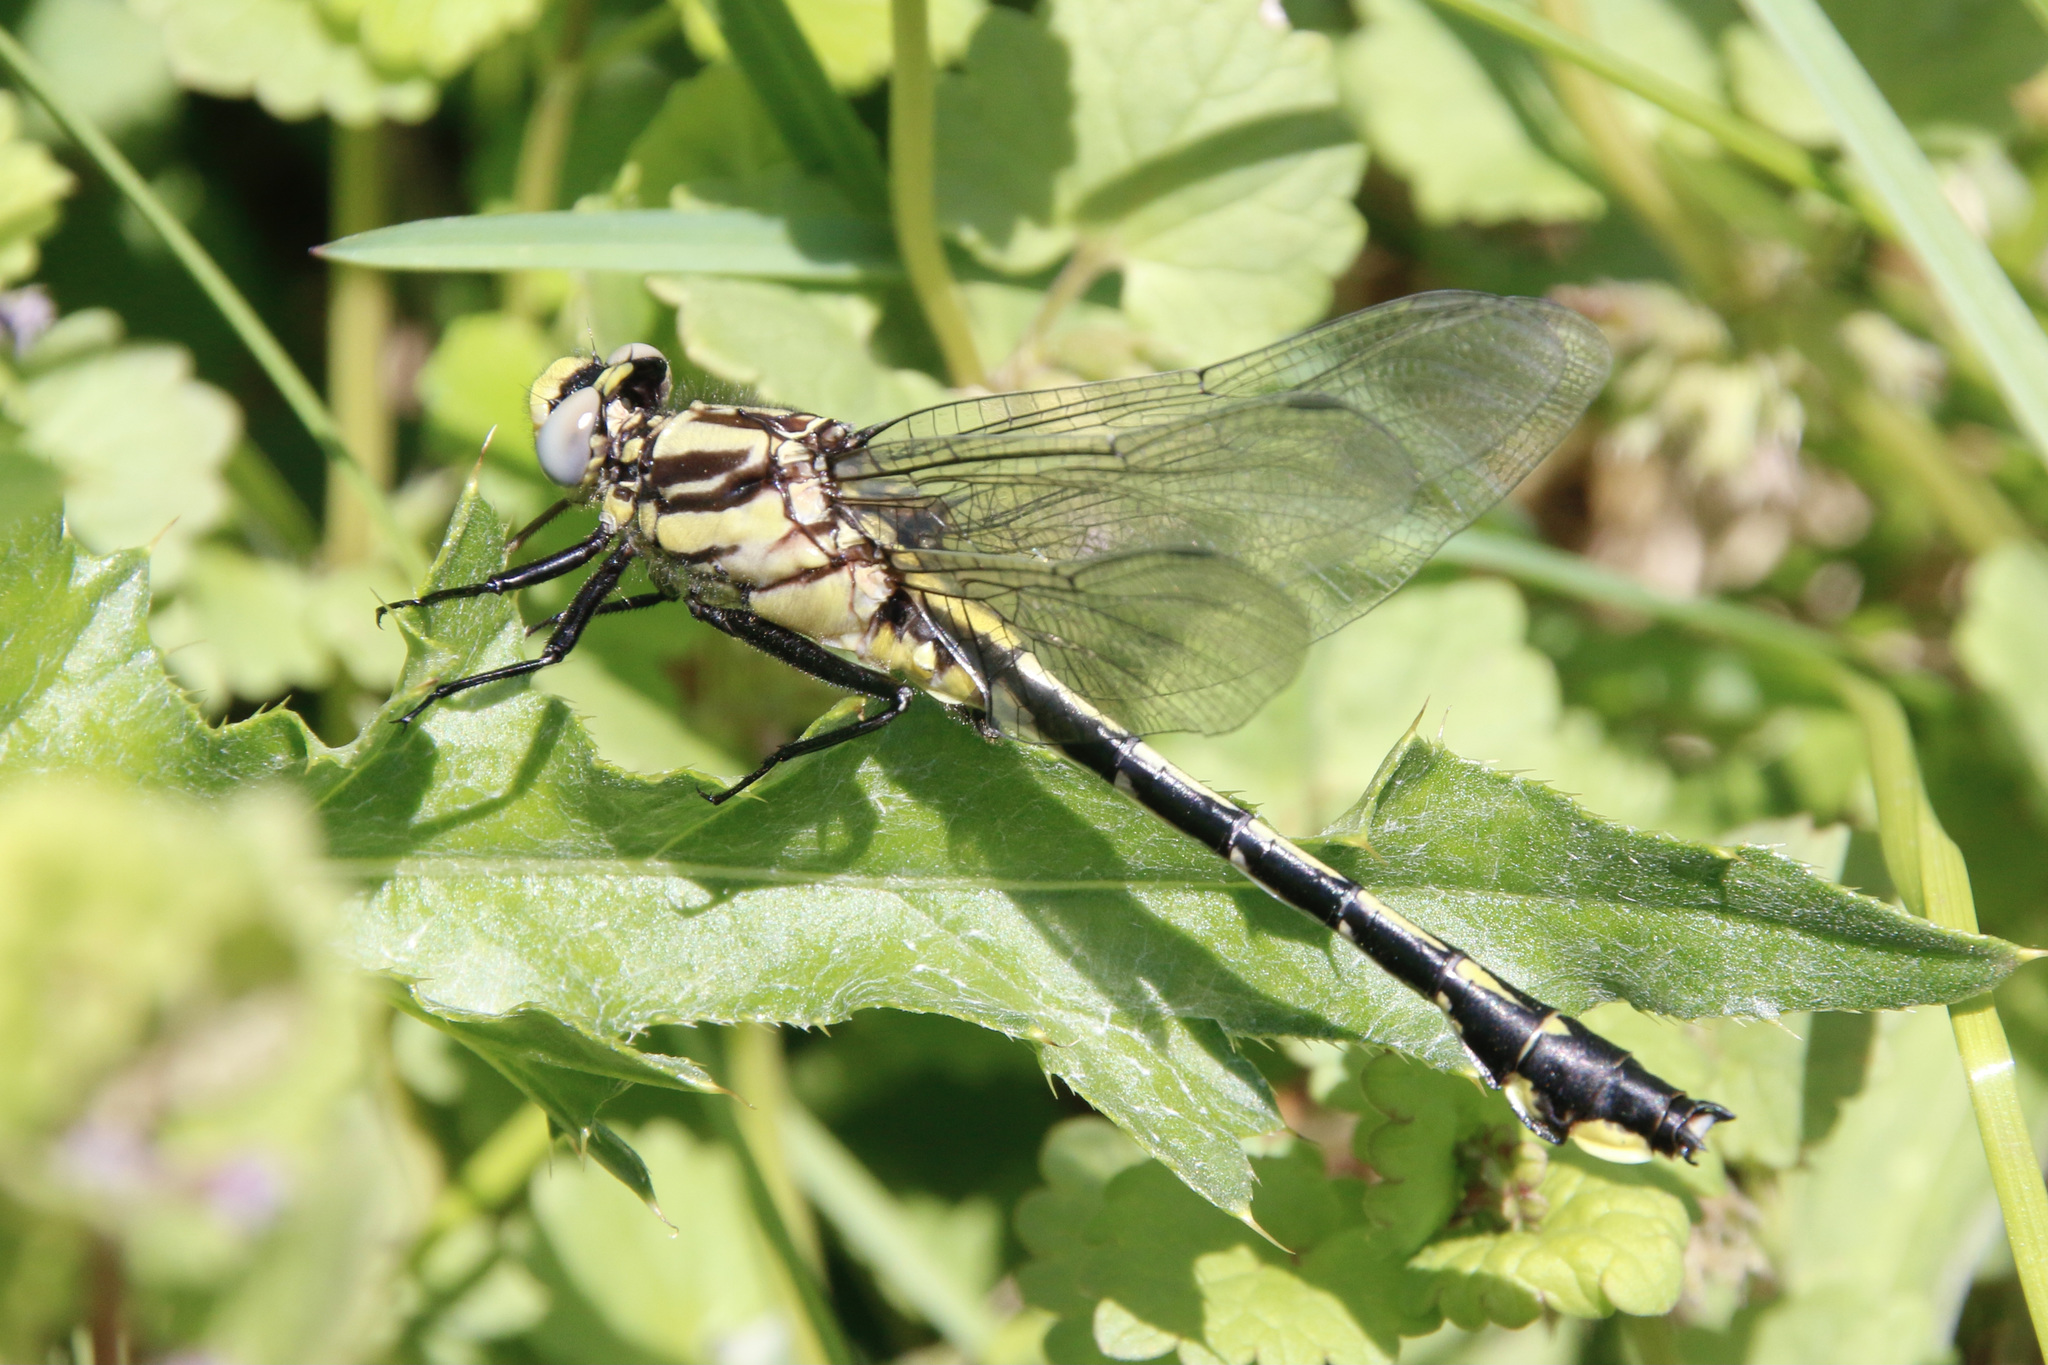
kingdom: Animalia
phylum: Arthropoda
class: Insecta
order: Odonata
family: Gomphidae
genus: Gomphurus
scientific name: Gomphurus fraternus
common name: Midland clubtail
